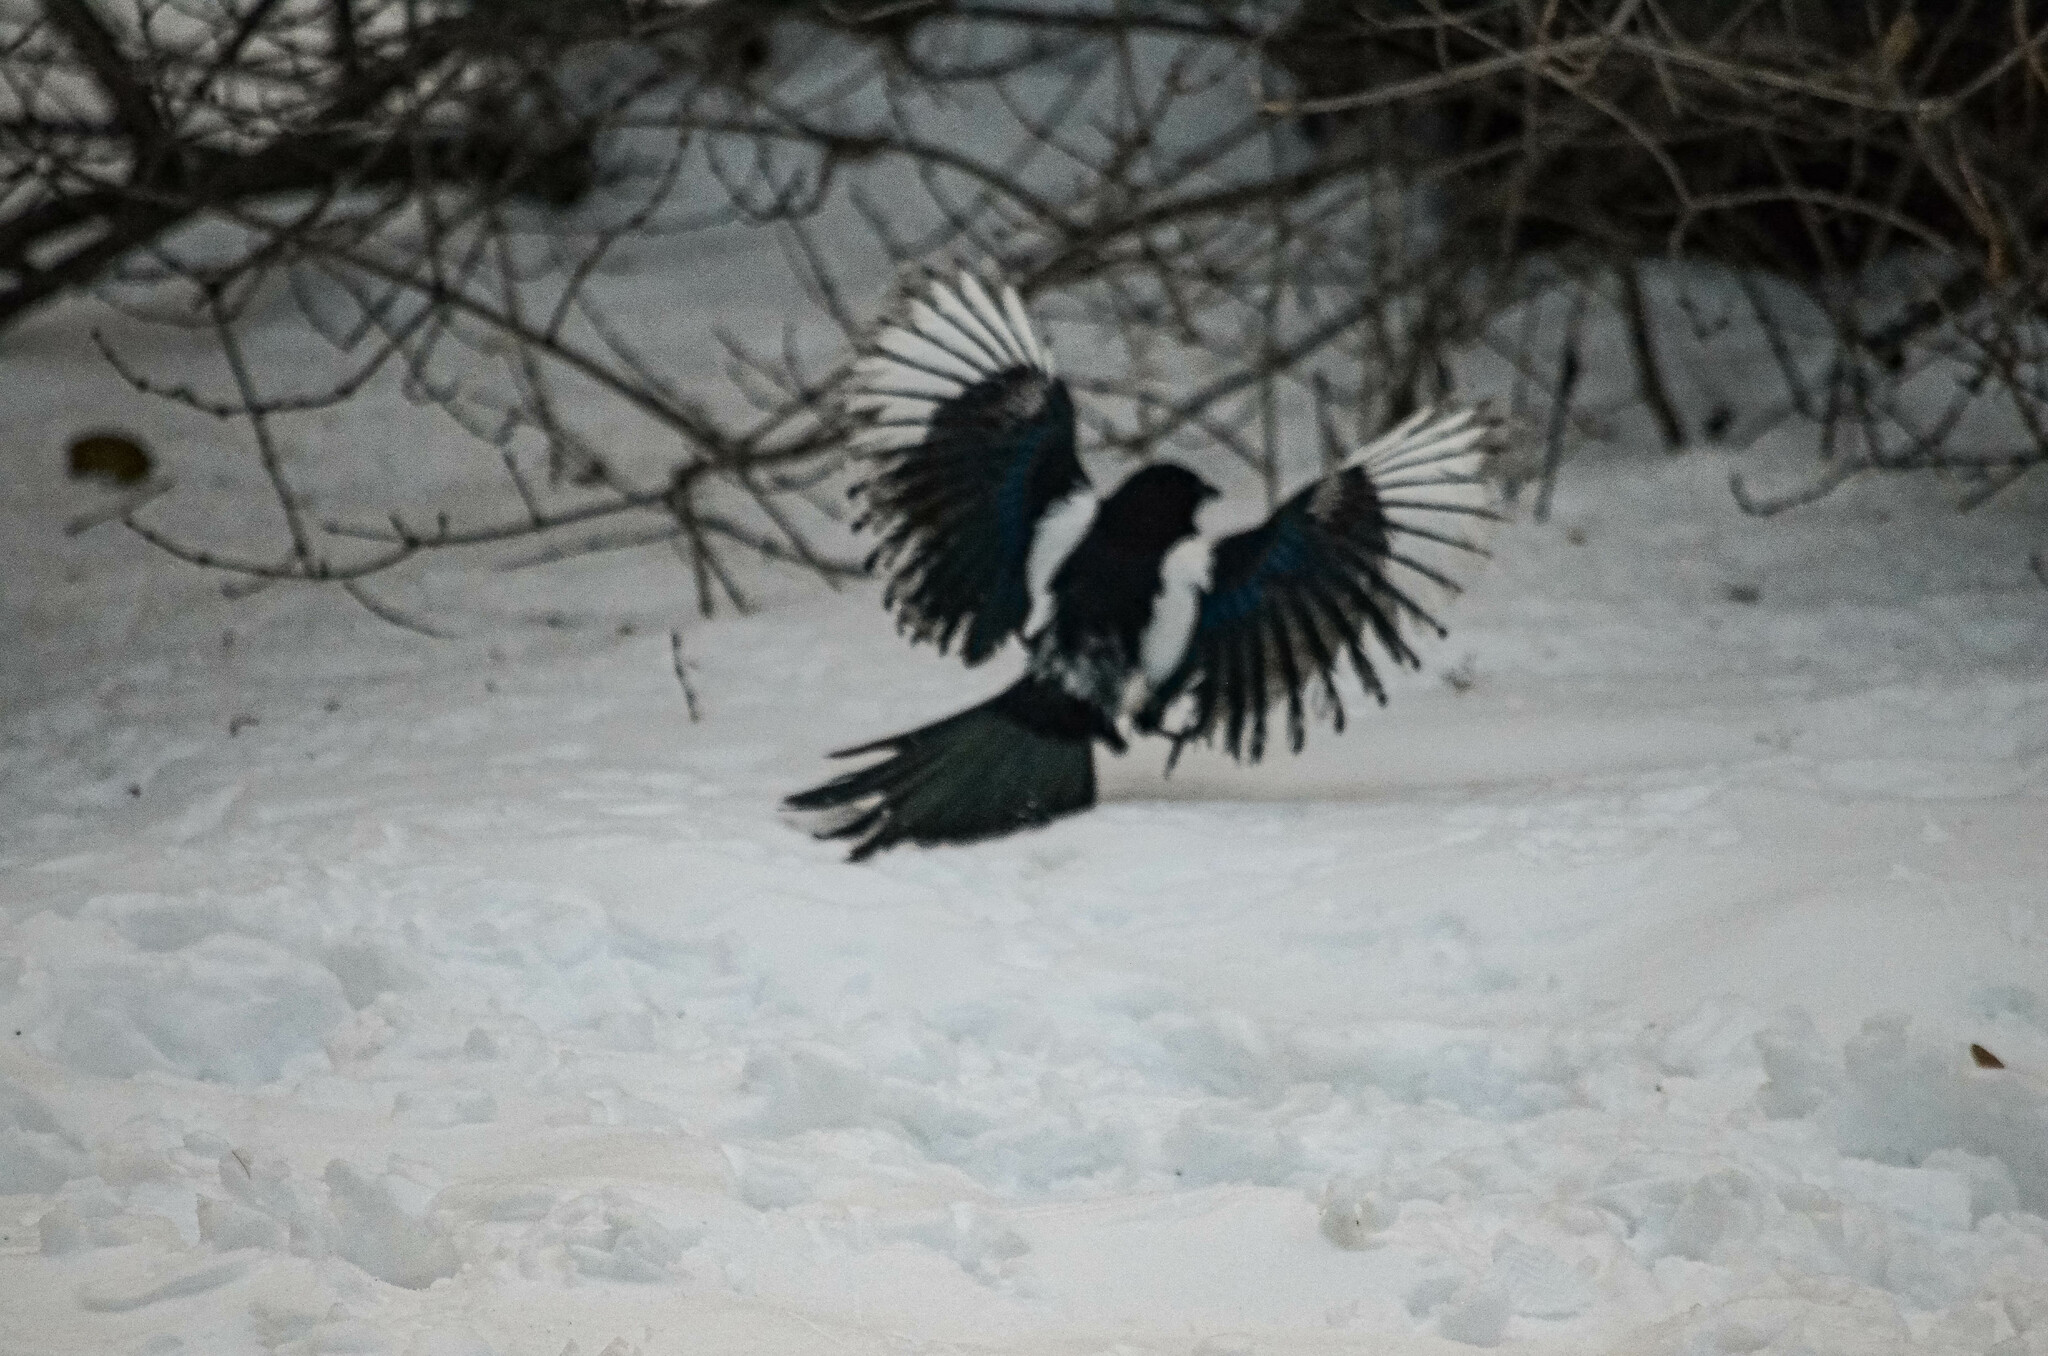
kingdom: Animalia
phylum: Chordata
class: Aves
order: Passeriformes
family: Corvidae
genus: Pica
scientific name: Pica pica
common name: Eurasian magpie
